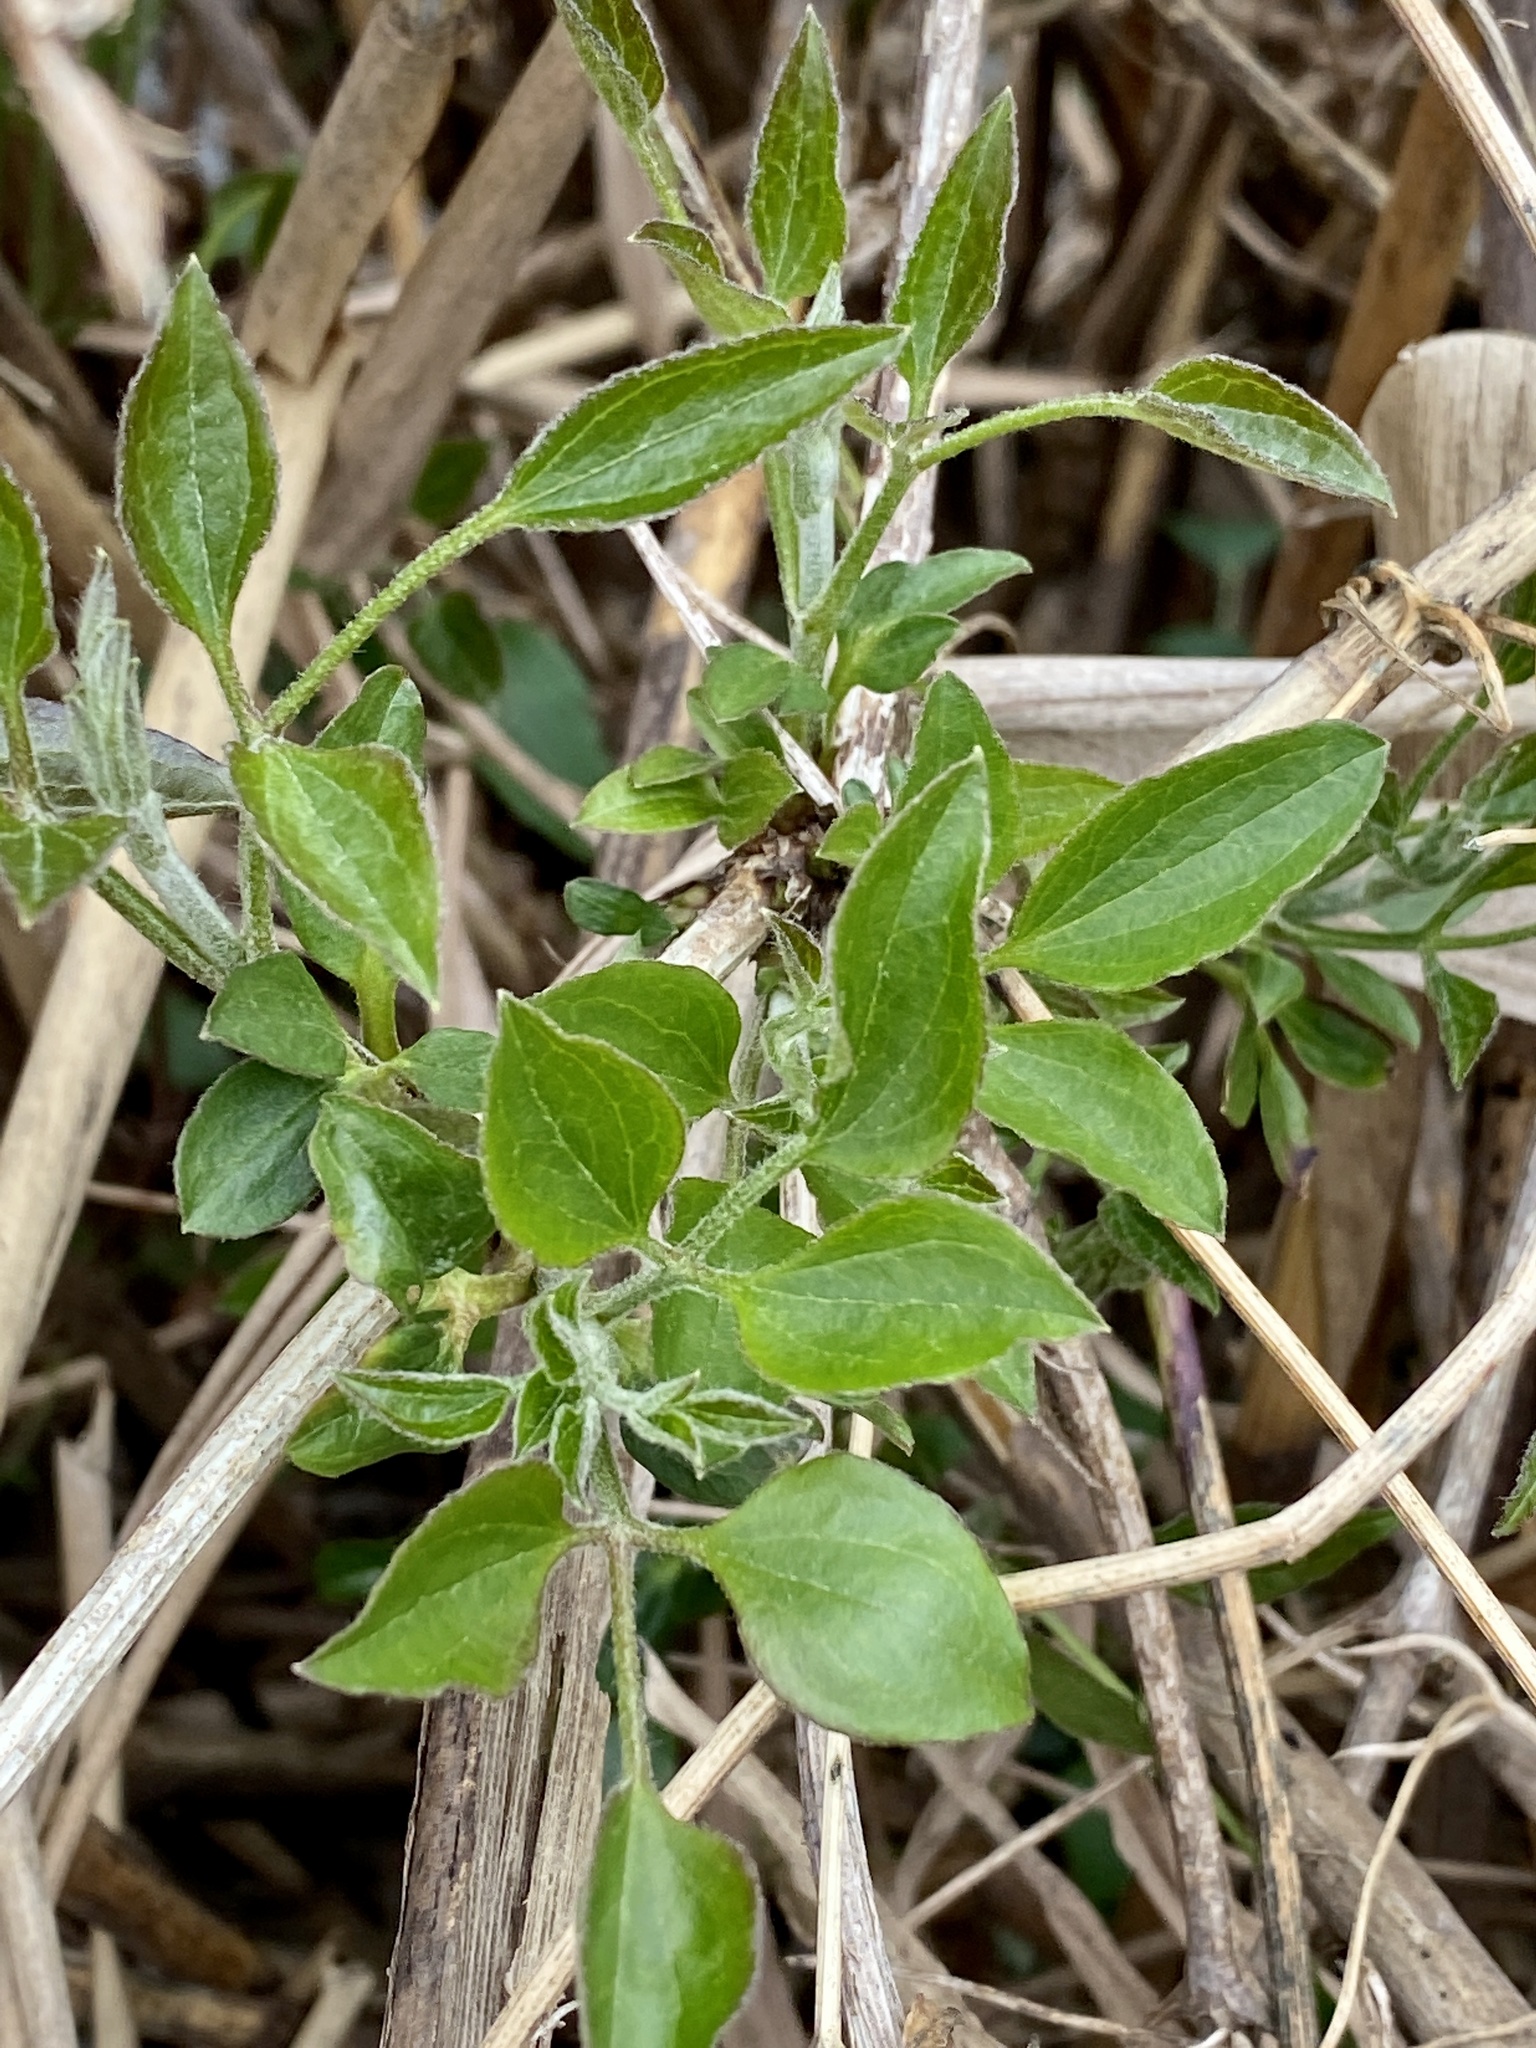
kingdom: Plantae
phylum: Tracheophyta
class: Magnoliopsida
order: Ranunculales
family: Ranunculaceae
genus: Clematis
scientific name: Clematis terniflora
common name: Sweet autumn clematis
